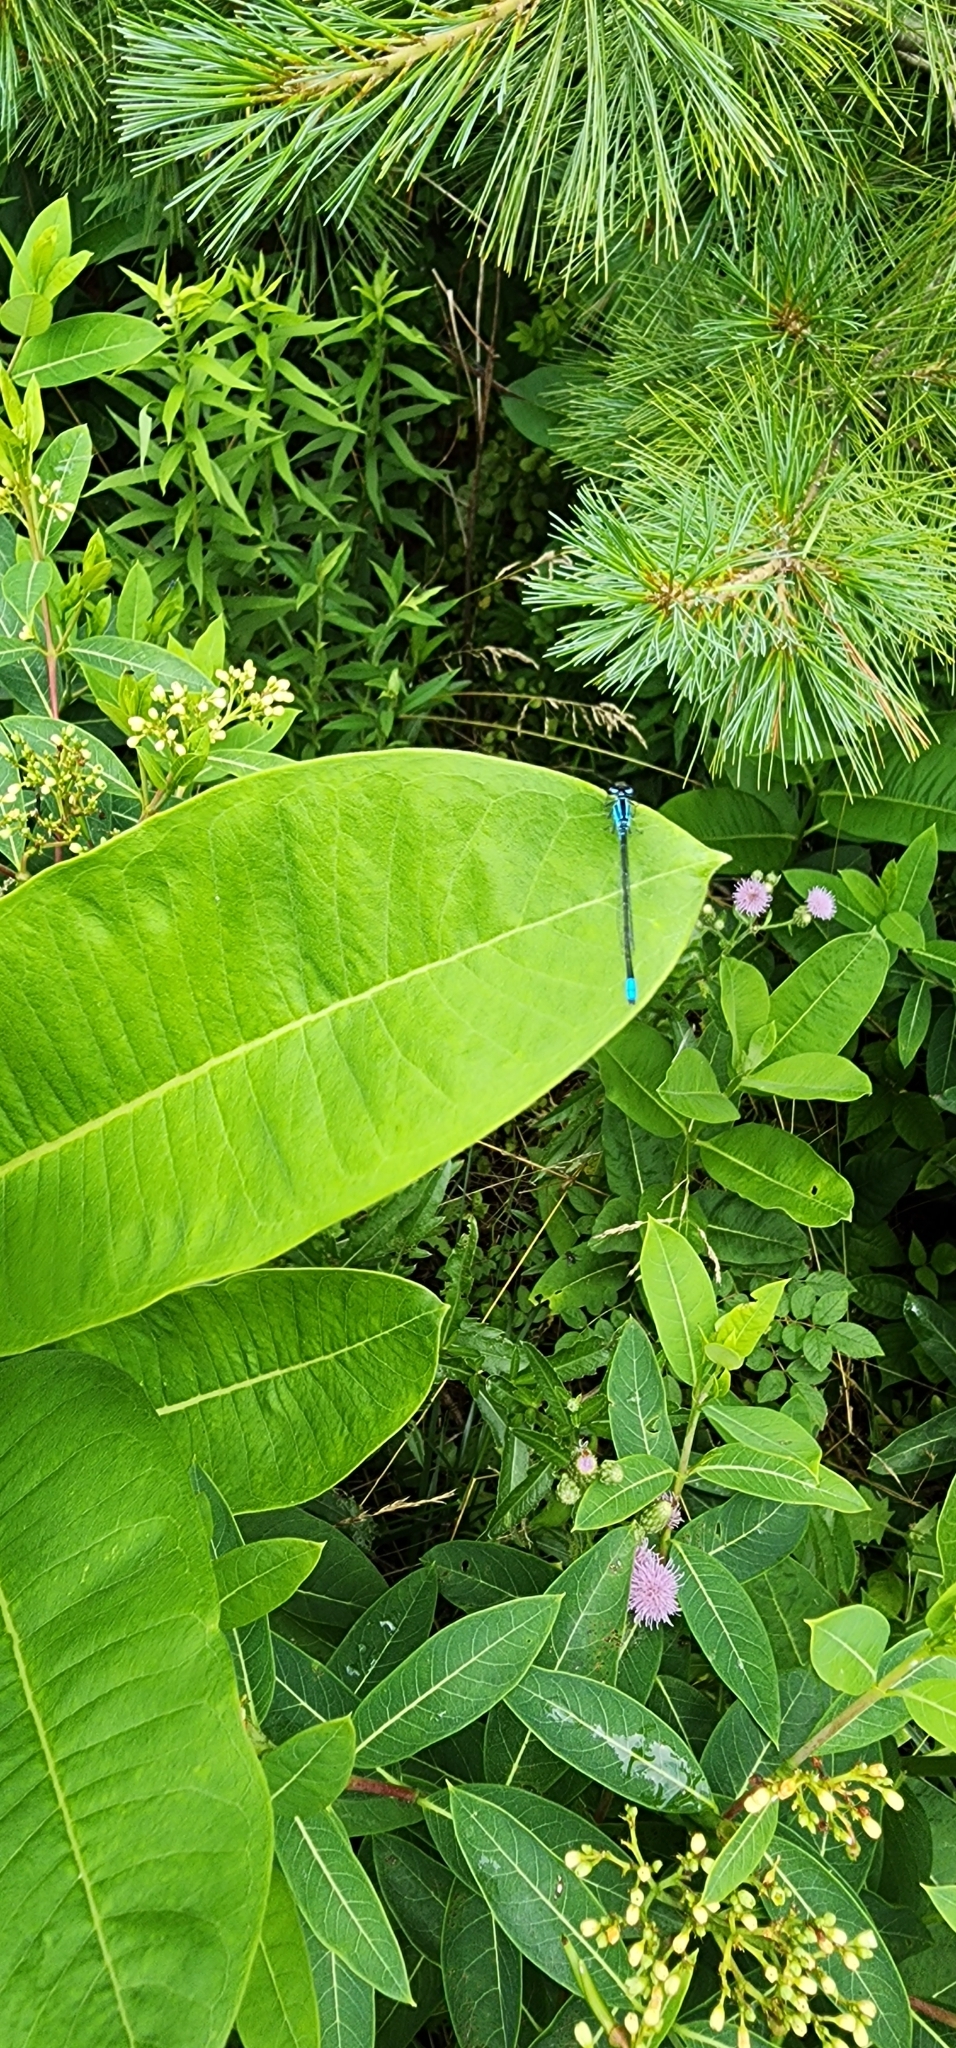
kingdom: Animalia
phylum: Arthropoda
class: Insecta
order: Odonata
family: Coenagrionidae
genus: Enallagma
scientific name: Enallagma aspersum
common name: Azure bluet
